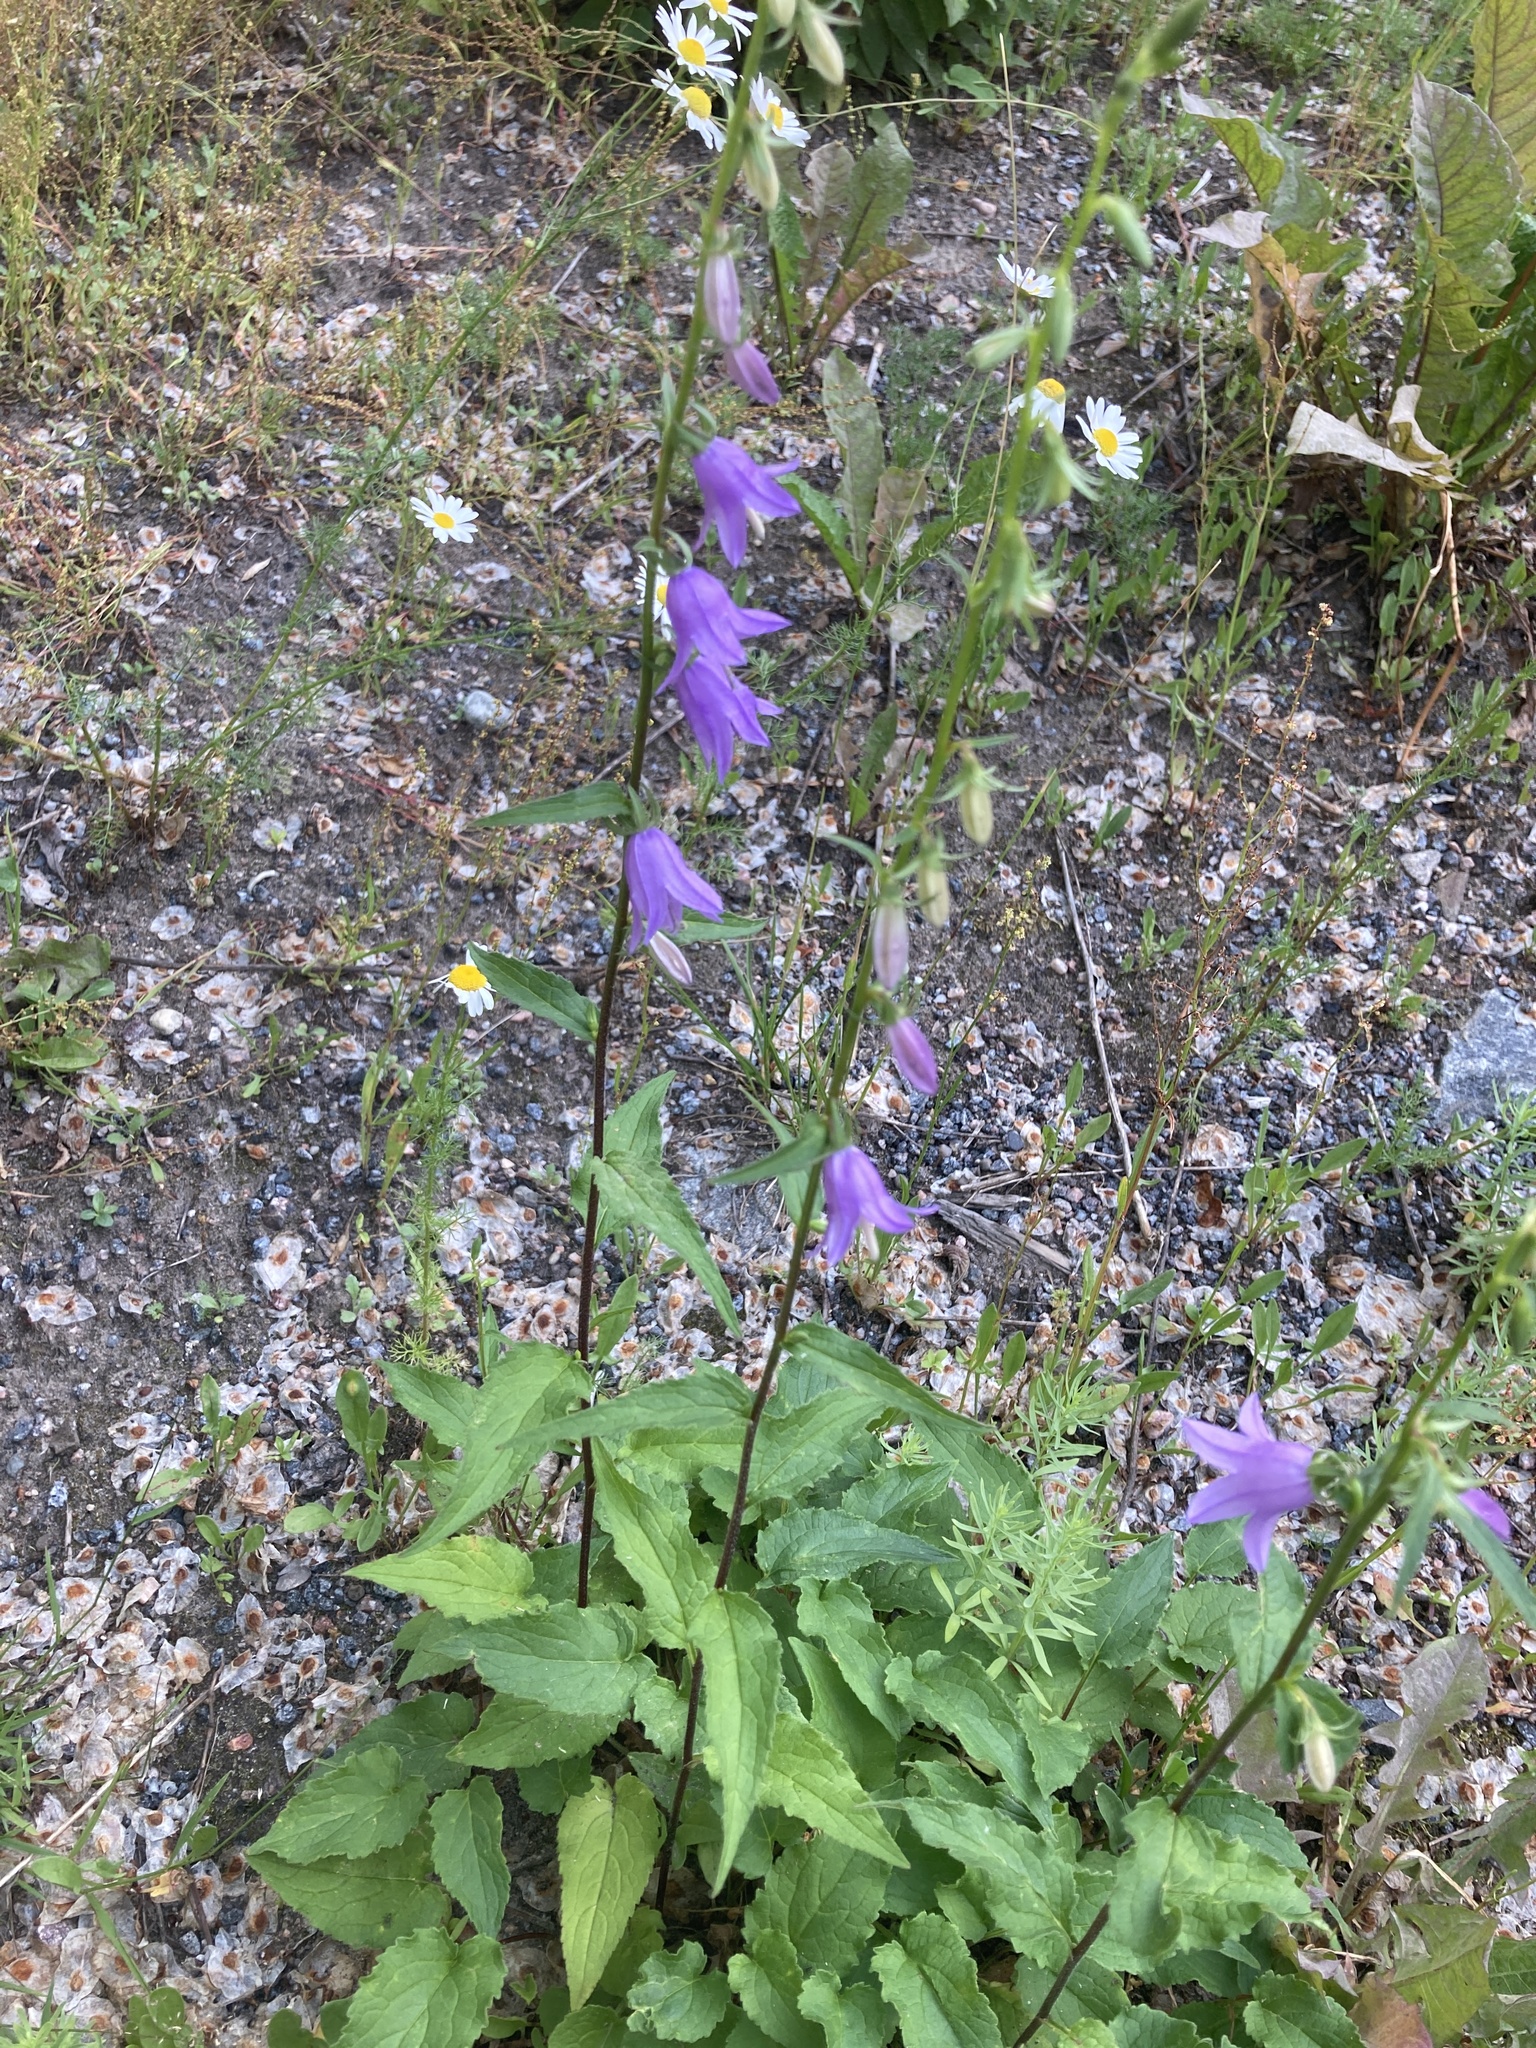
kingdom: Plantae
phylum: Tracheophyta
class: Magnoliopsida
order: Asterales
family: Campanulaceae
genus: Campanula
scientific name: Campanula rapunculoides
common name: Creeping bellflower
